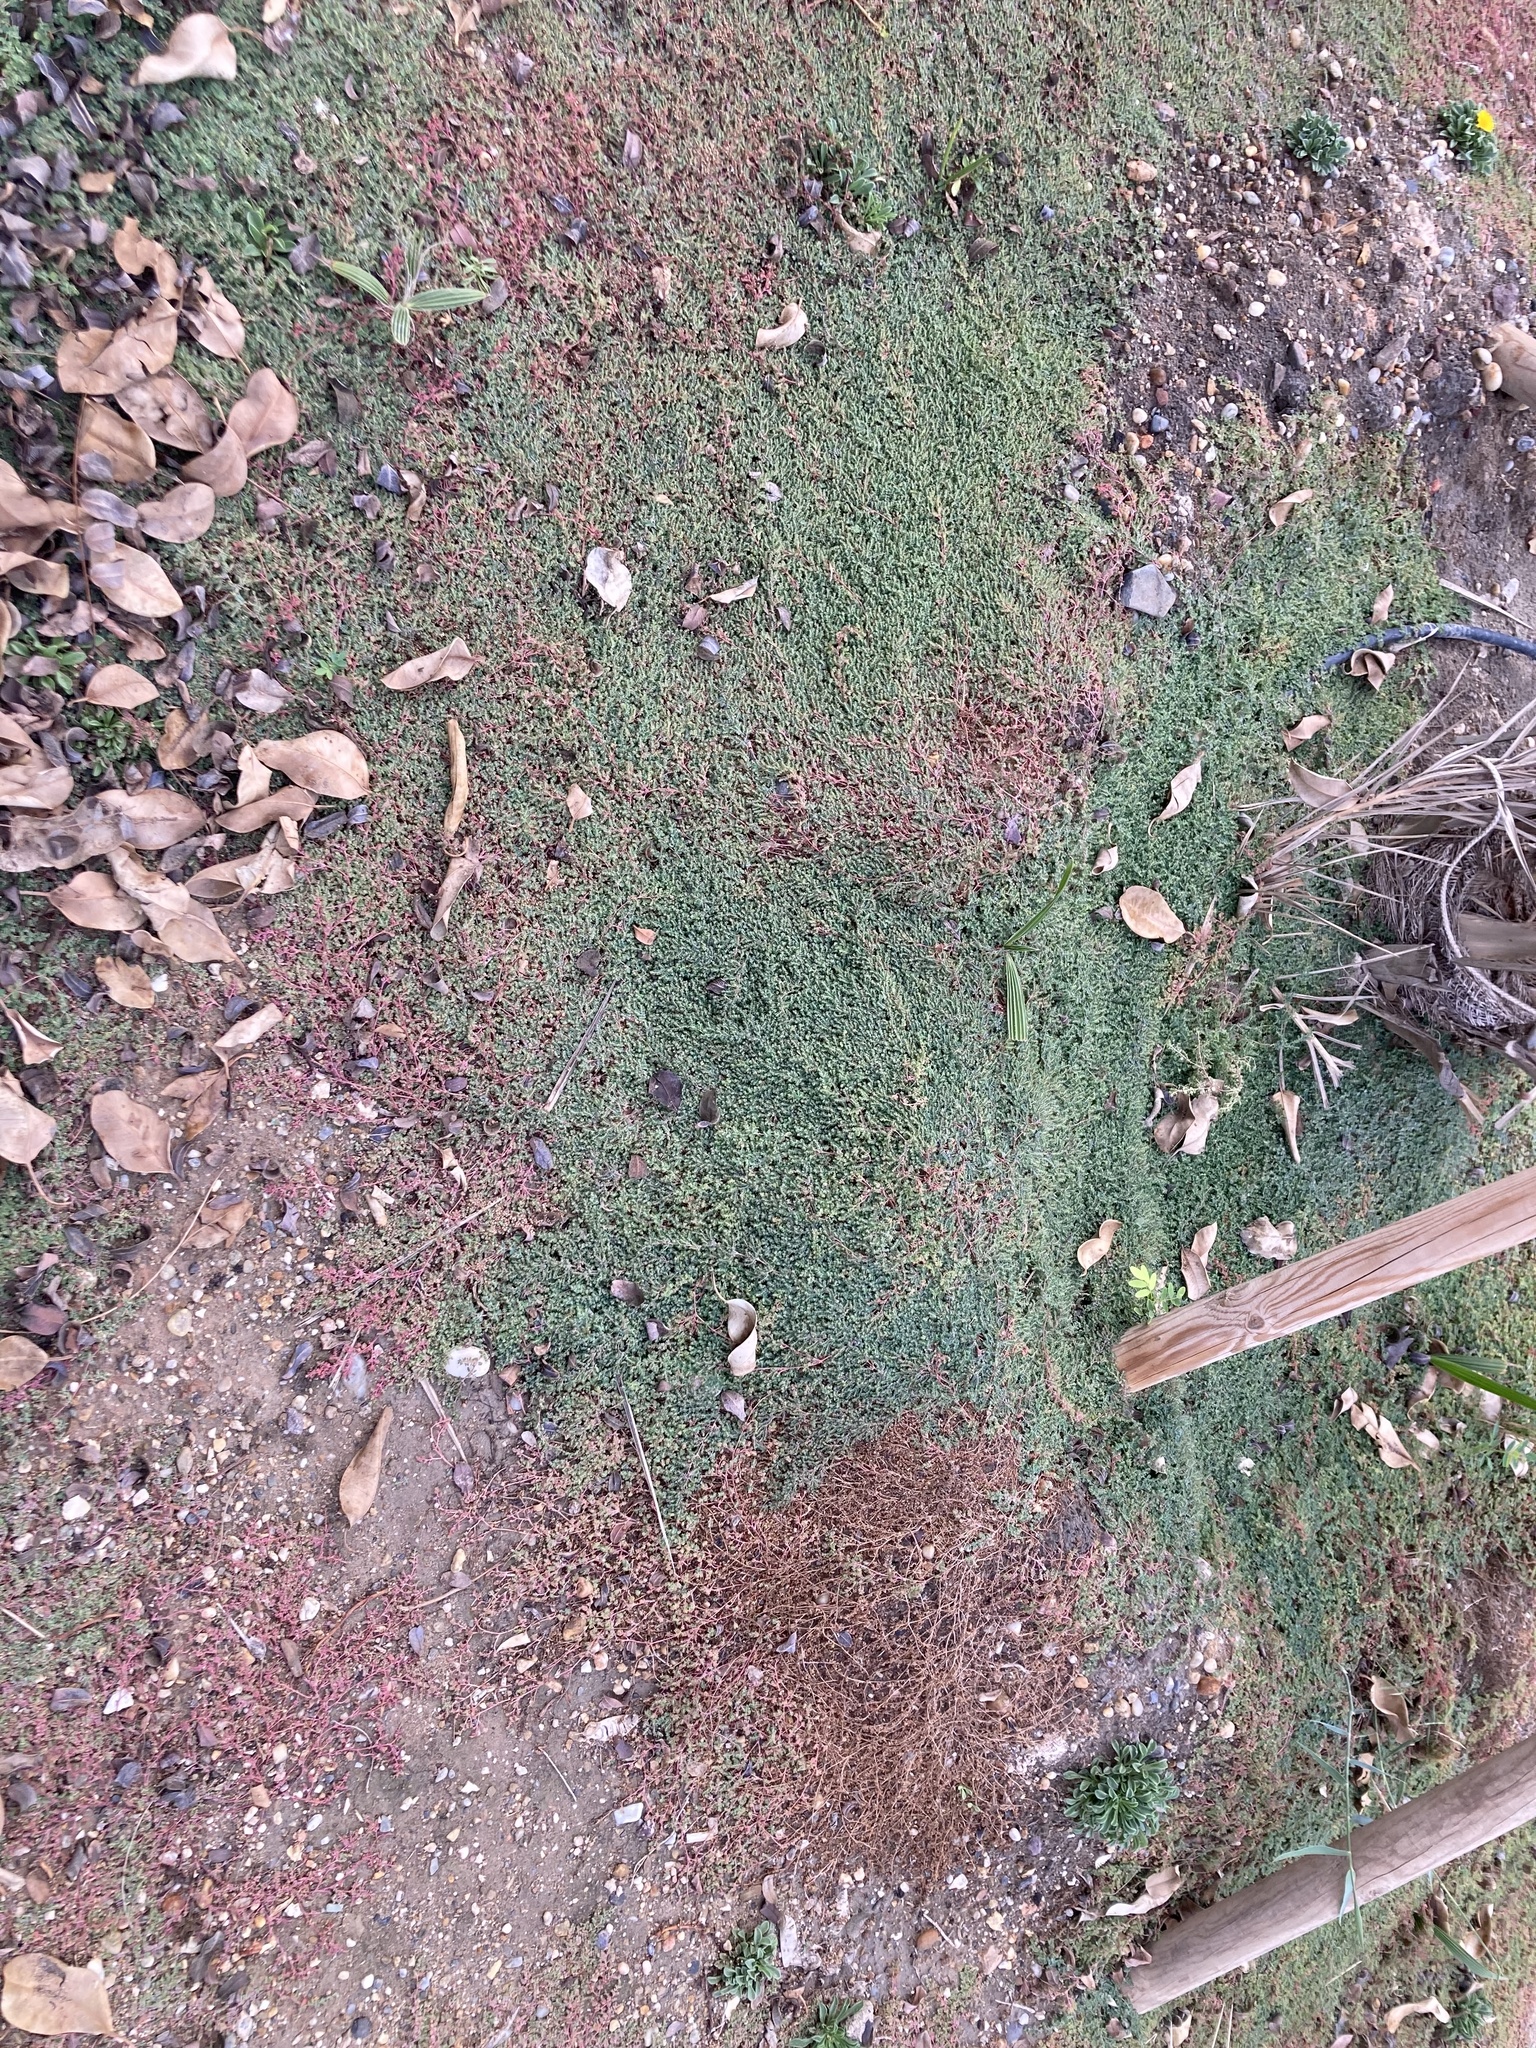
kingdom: Plantae
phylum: Tracheophyta
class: Magnoliopsida
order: Malpighiales
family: Euphorbiaceae
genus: Euphorbia
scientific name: Euphorbia serpens
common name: Matted sandmat
